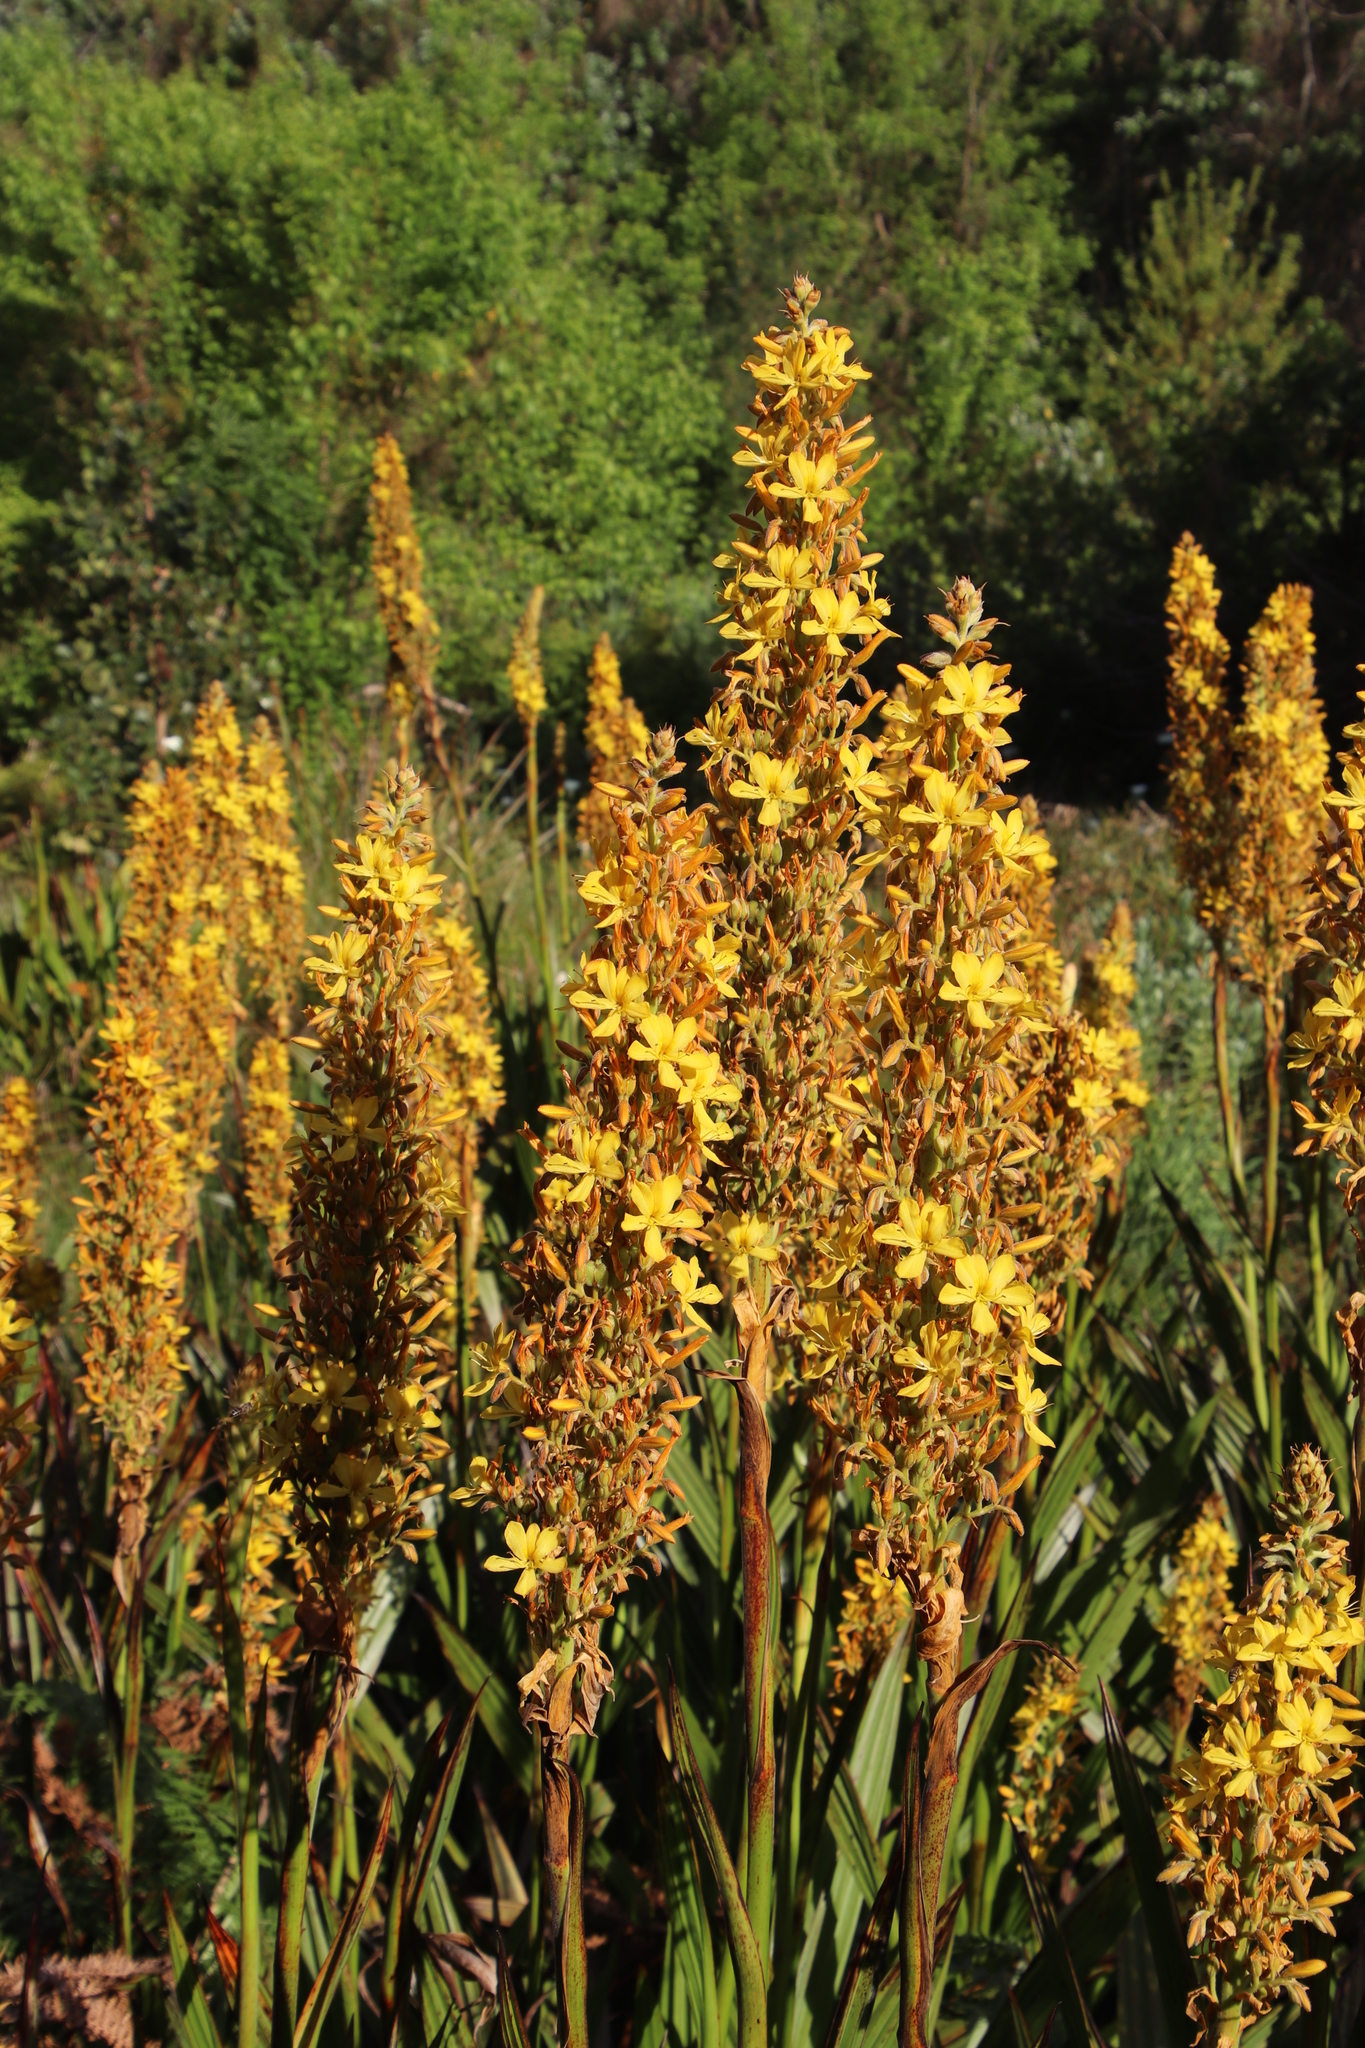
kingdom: Plantae
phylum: Tracheophyta
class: Liliopsida
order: Commelinales
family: Haemodoraceae
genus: Wachendorfia
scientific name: Wachendorfia thyrsiflora
